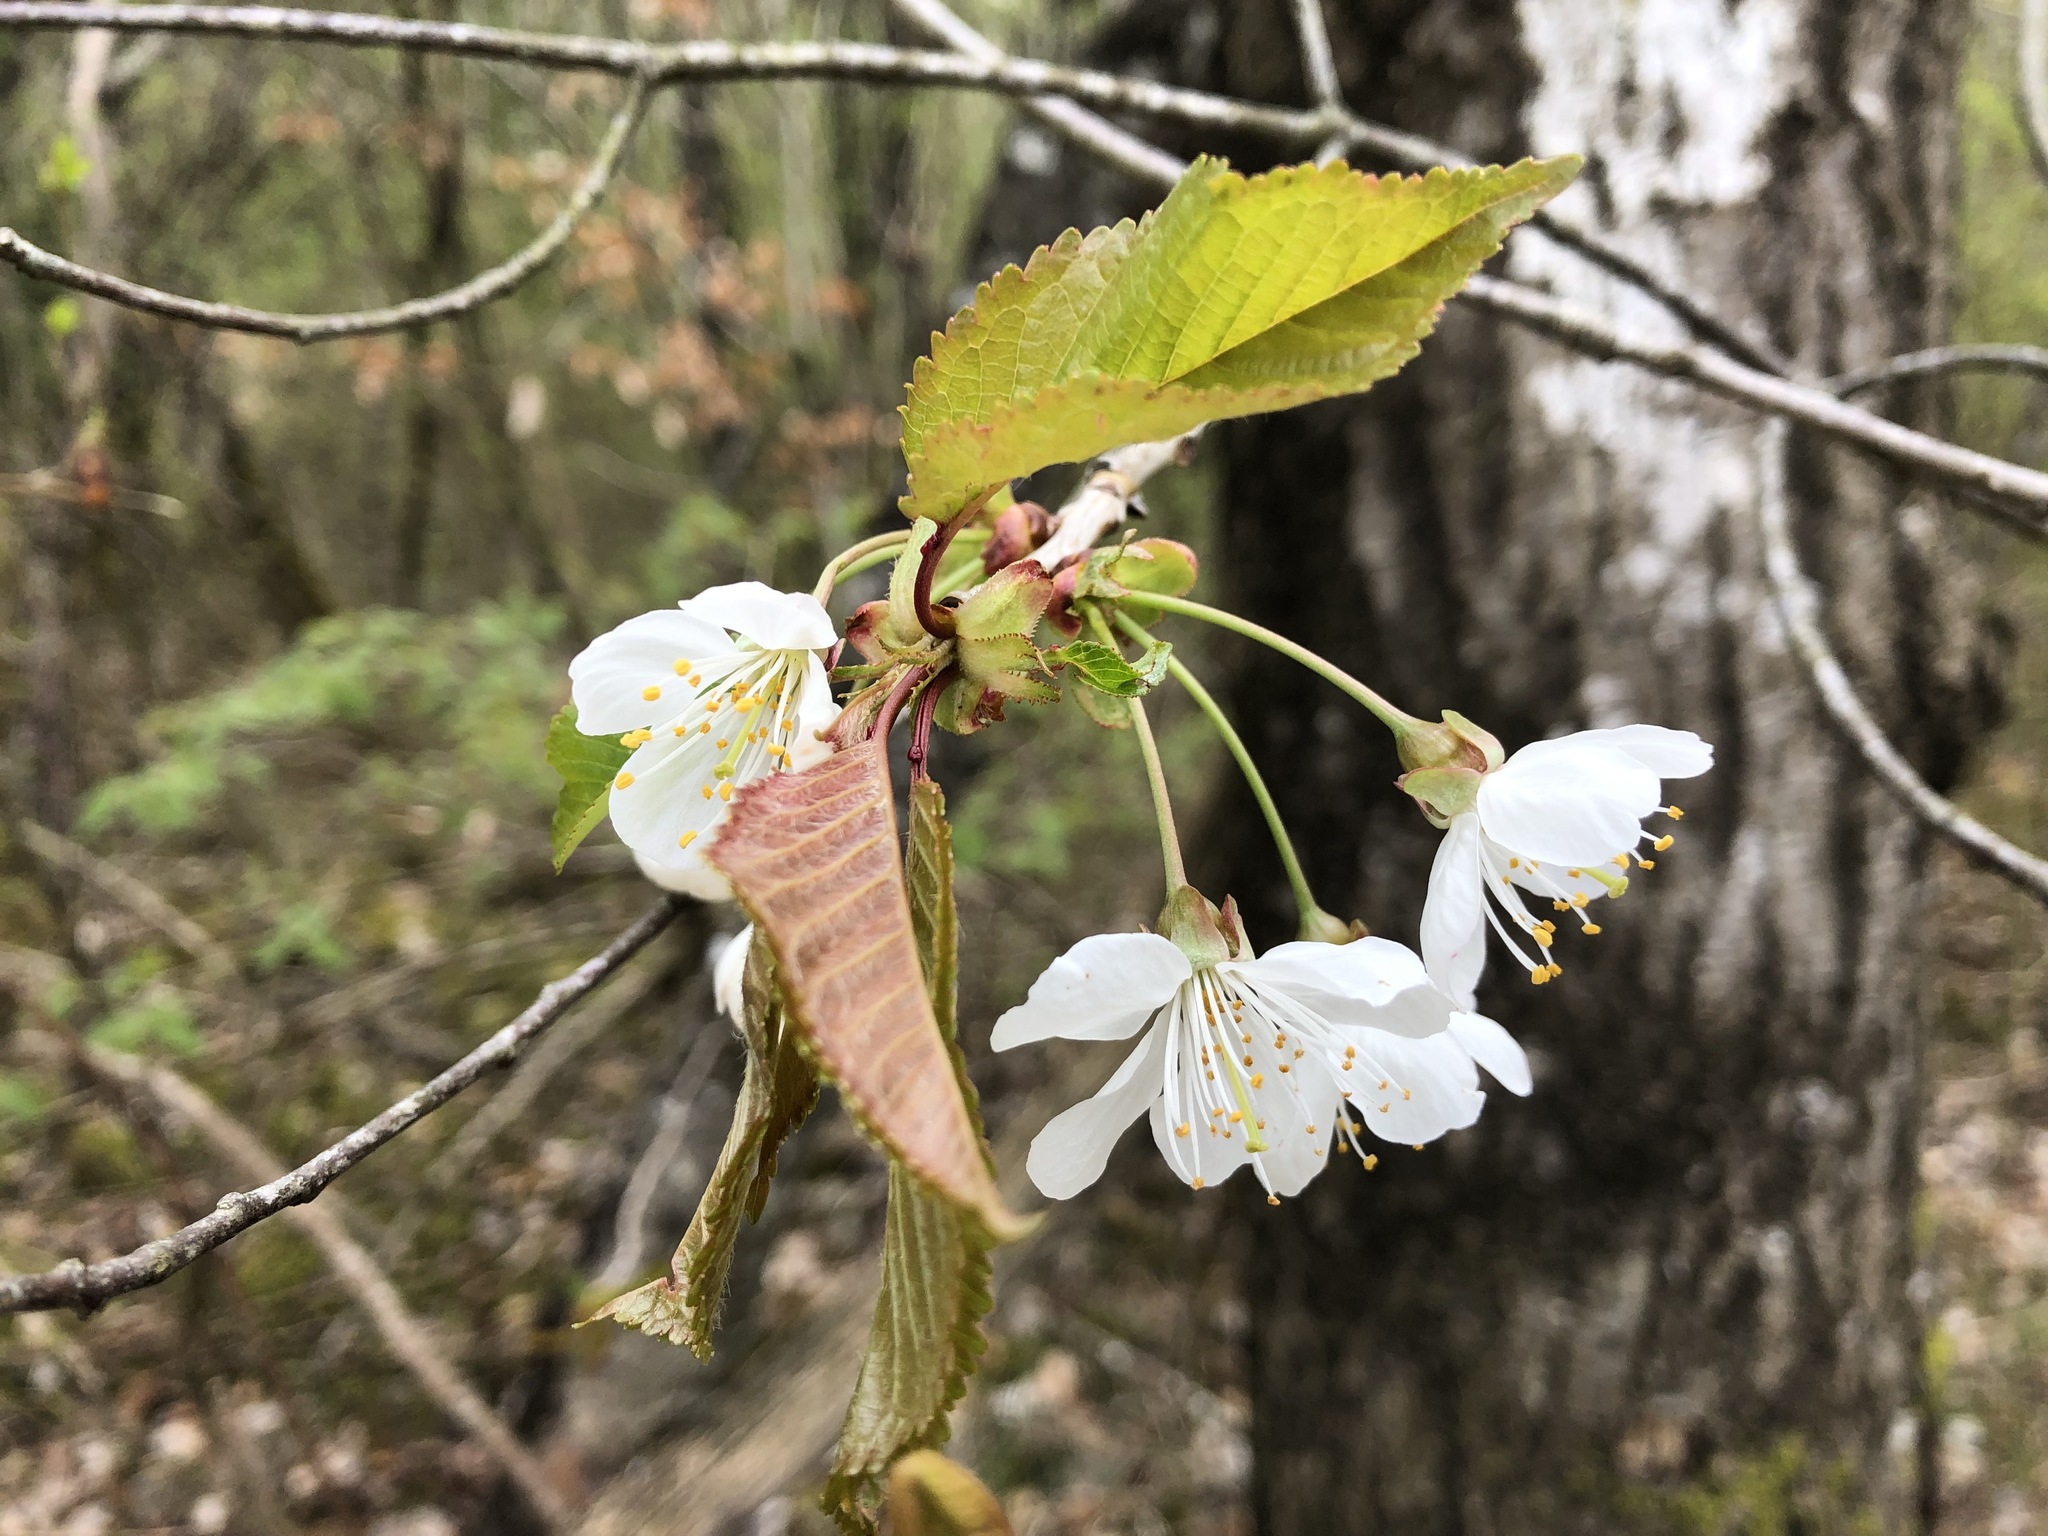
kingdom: Plantae
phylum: Tracheophyta
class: Magnoliopsida
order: Rosales
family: Rosaceae
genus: Prunus
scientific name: Prunus avium
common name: Sweet cherry
